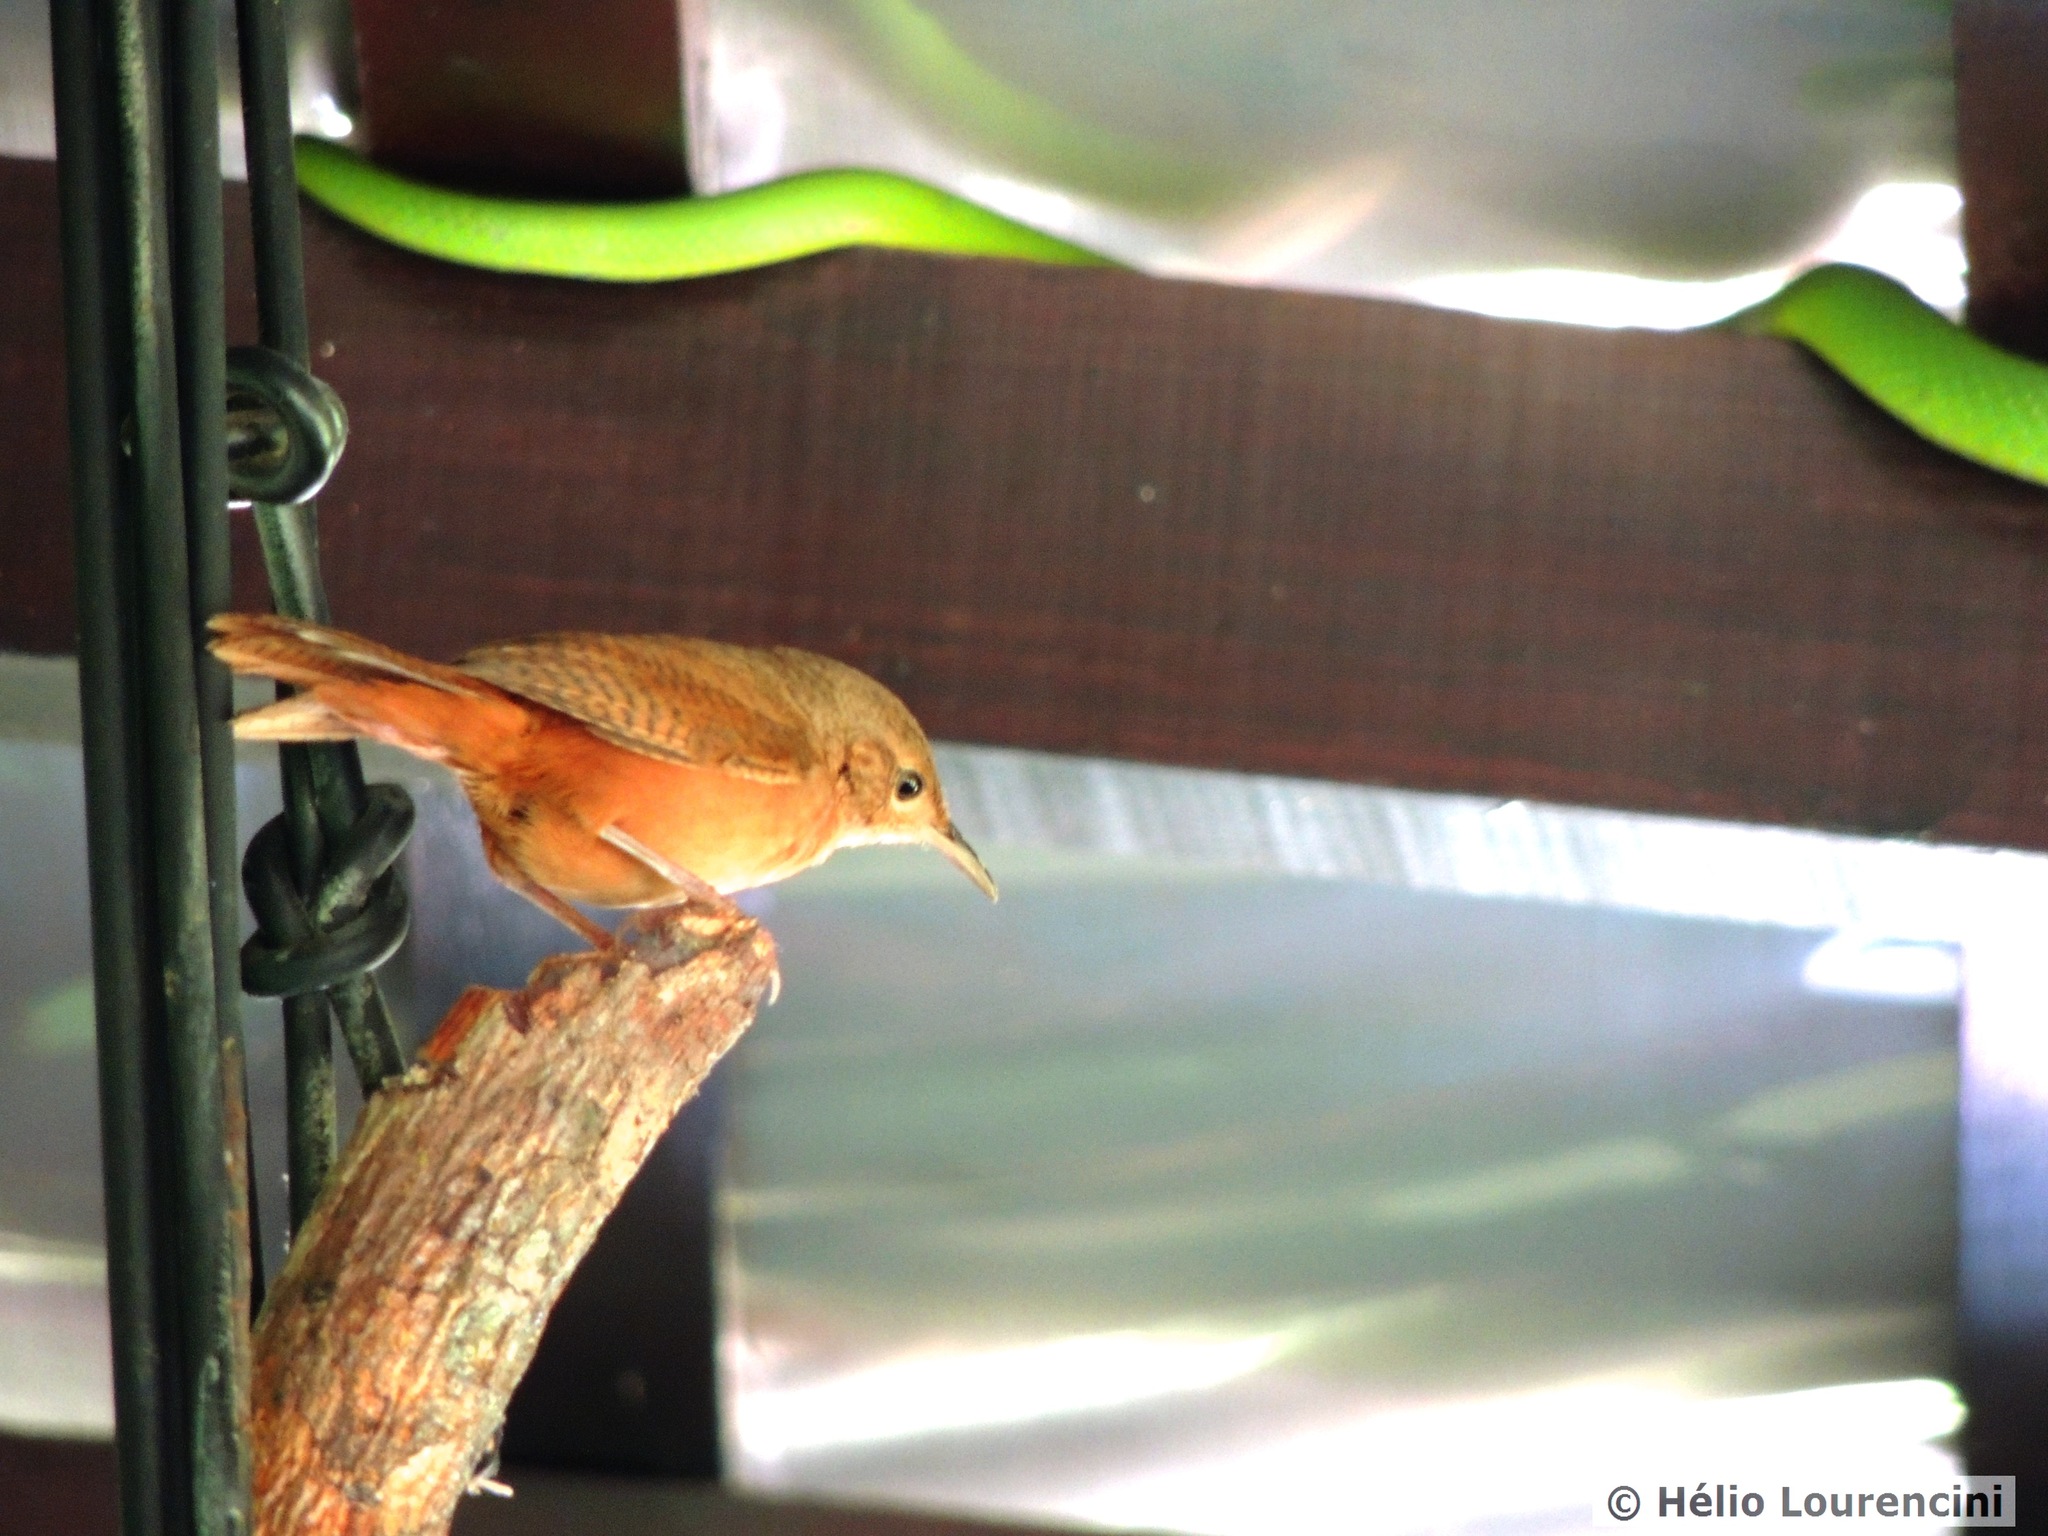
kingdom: Animalia
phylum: Chordata
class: Squamata
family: Colubridae
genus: Philodryas
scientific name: Philodryas olfersii
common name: Lichtenstein's green racer
